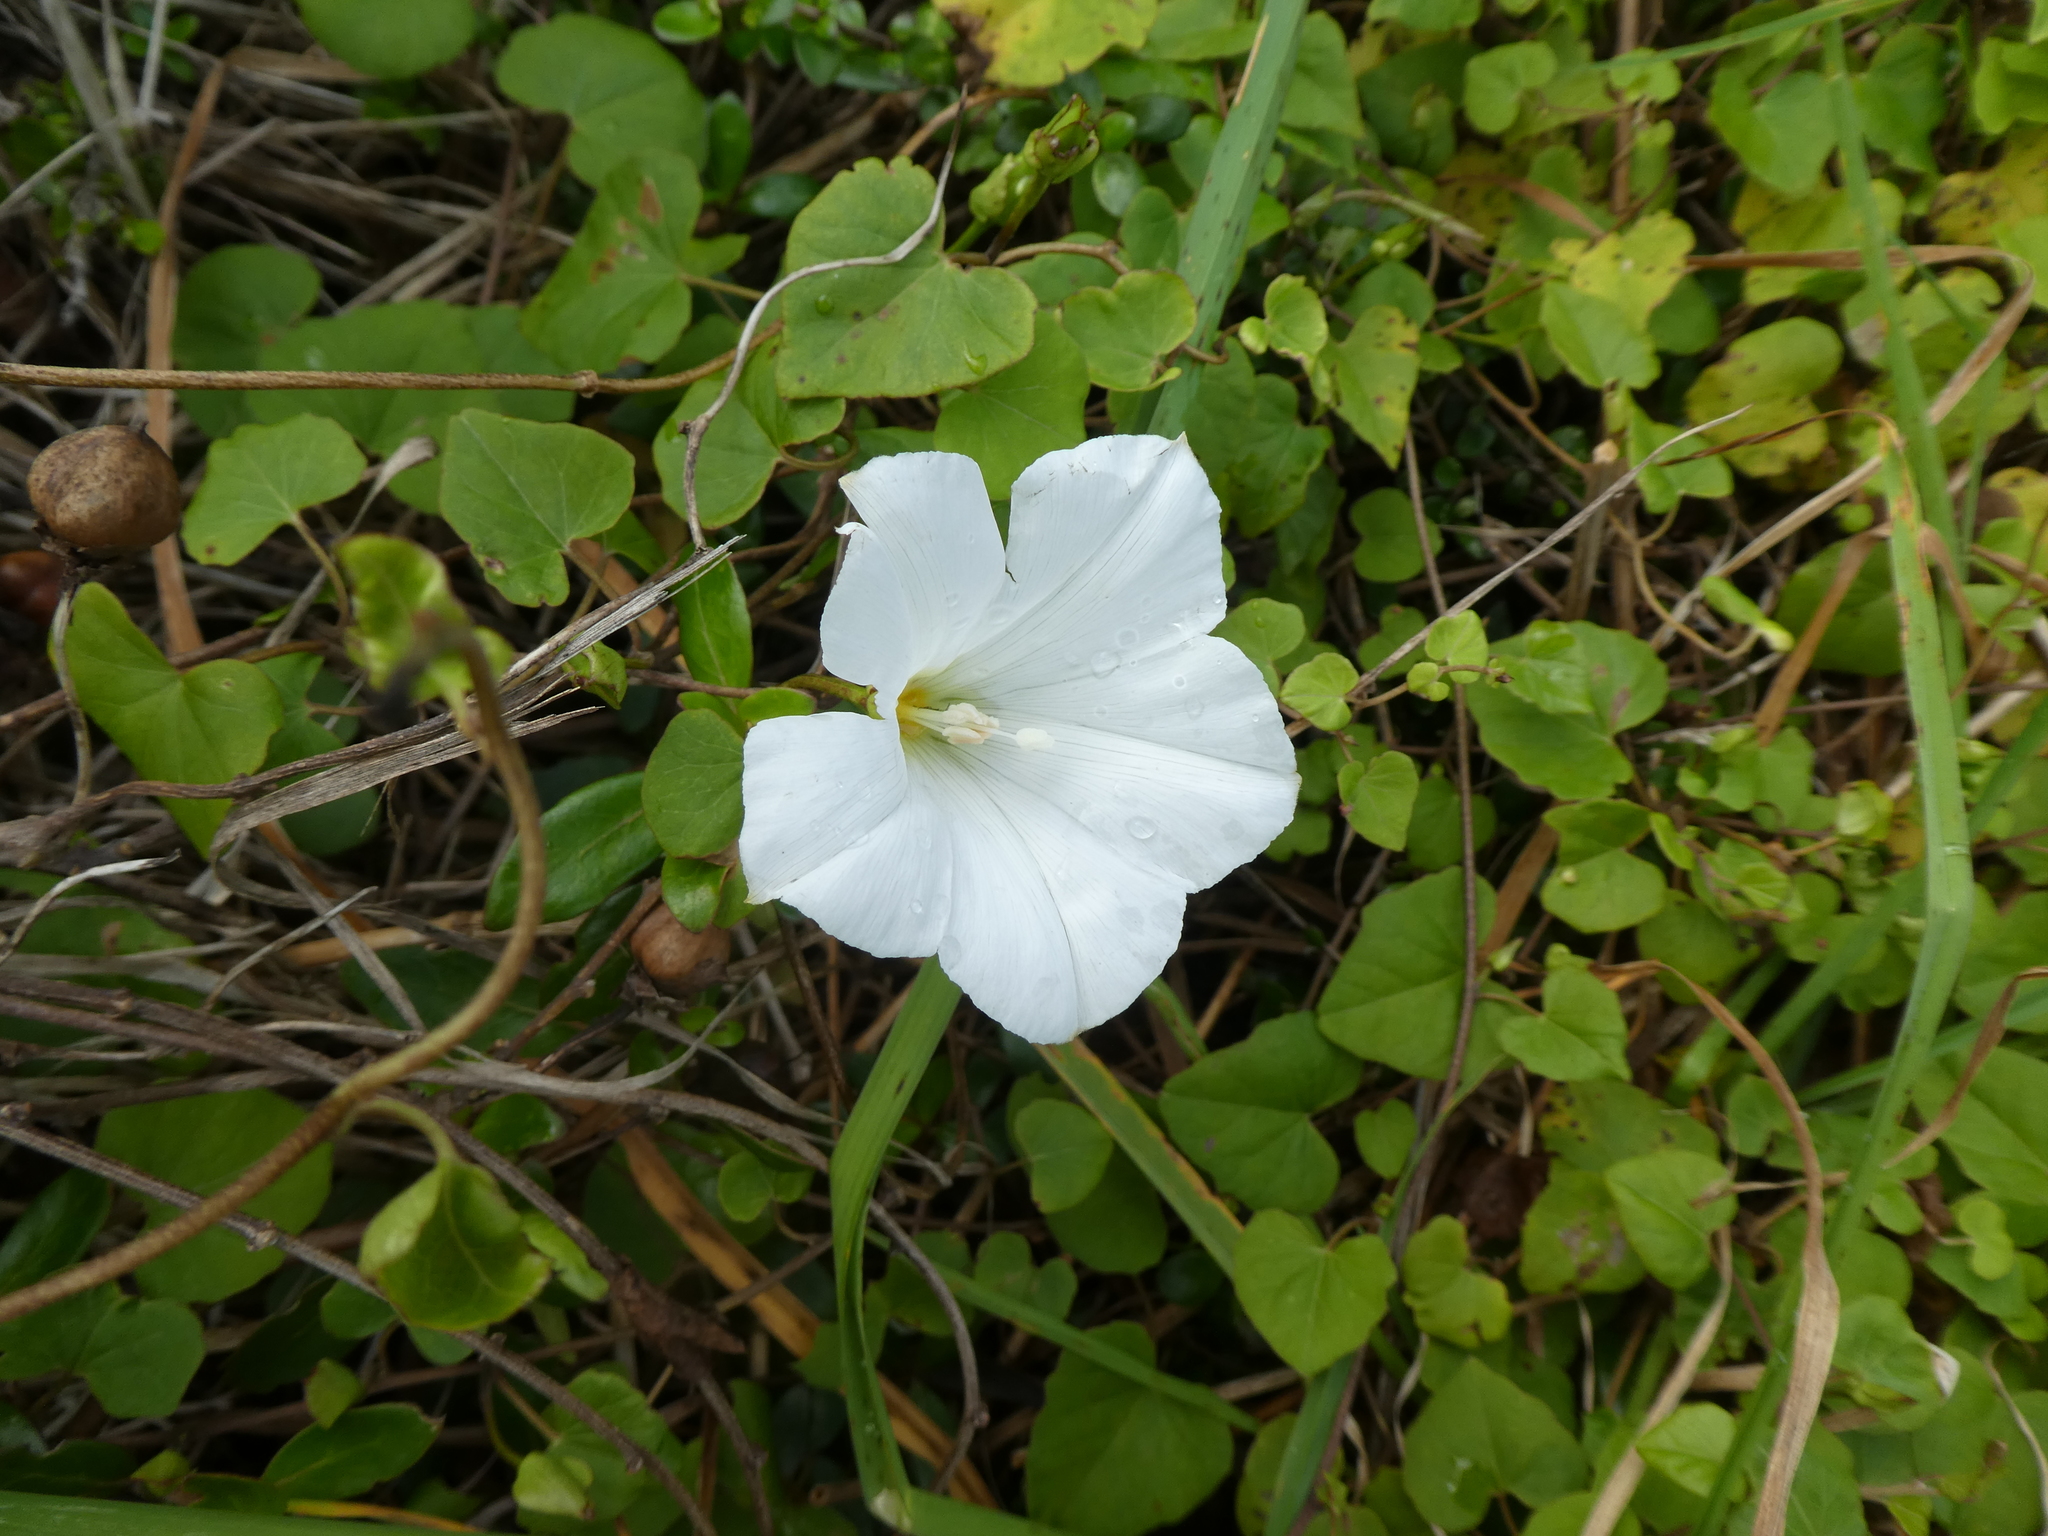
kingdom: Plantae
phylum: Tracheophyta
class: Magnoliopsida
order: Solanales
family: Convolvulaceae
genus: Calystegia
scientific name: Calystegia tuguriorum
